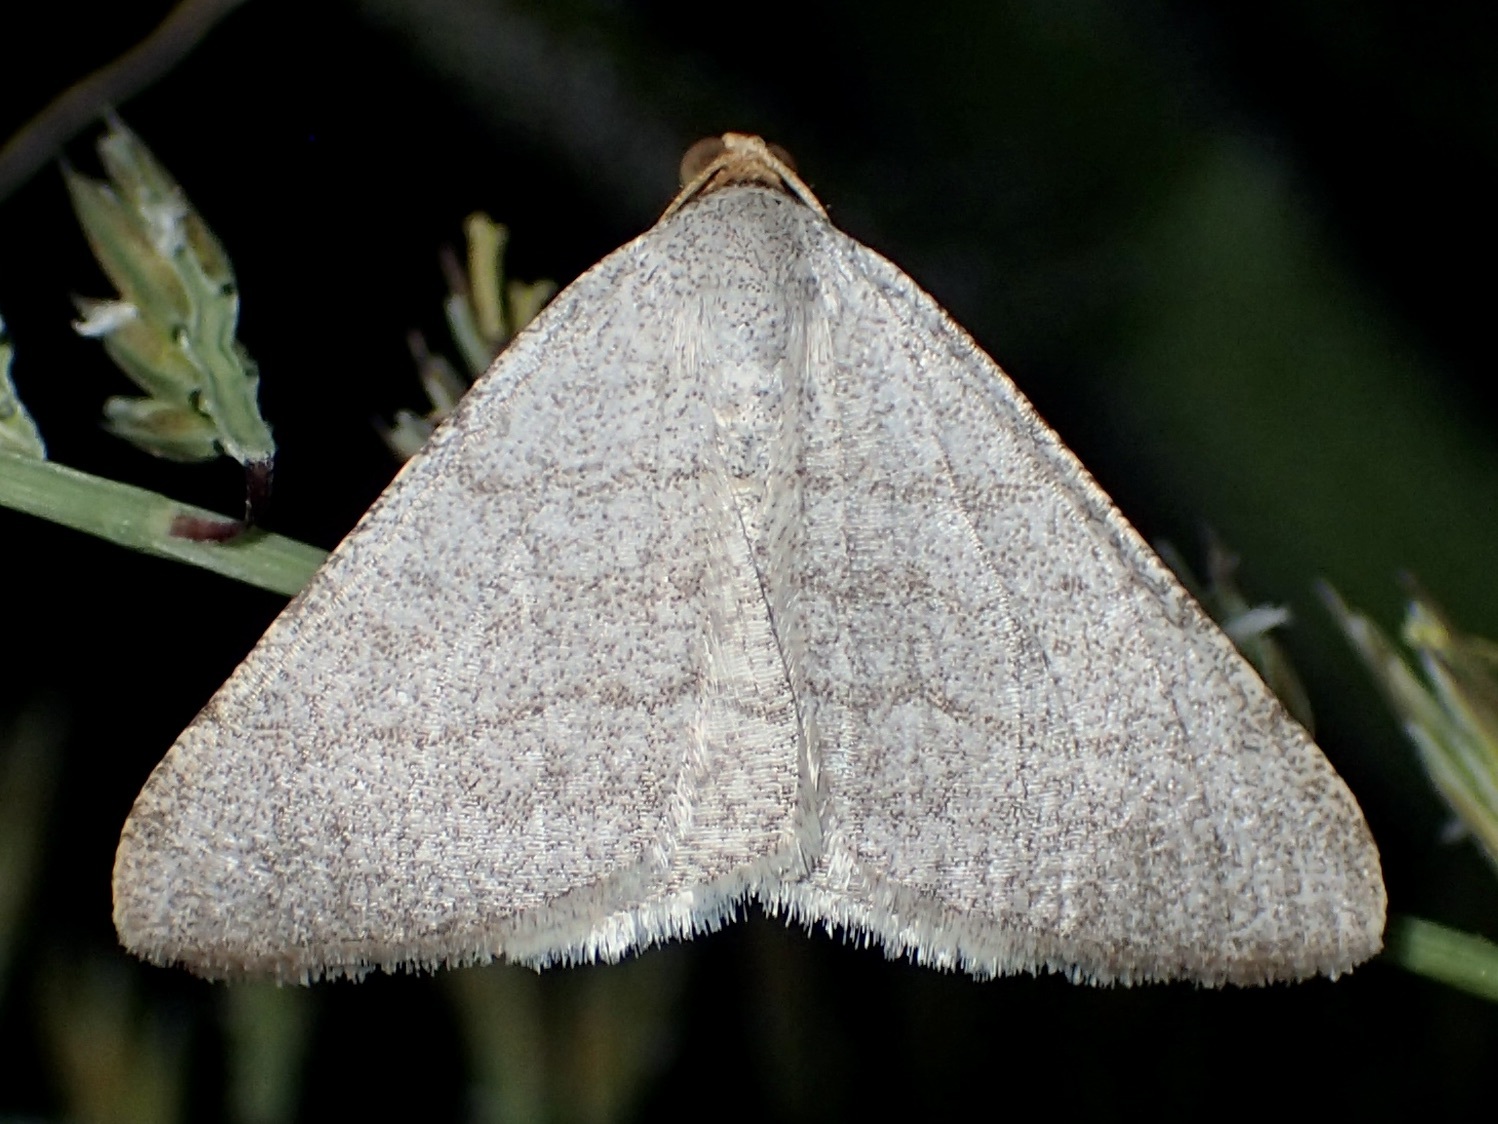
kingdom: Animalia
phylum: Arthropoda
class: Insecta
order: Lepidoptera
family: Geometridae
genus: Macaria
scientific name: Macaria tenebrosata
